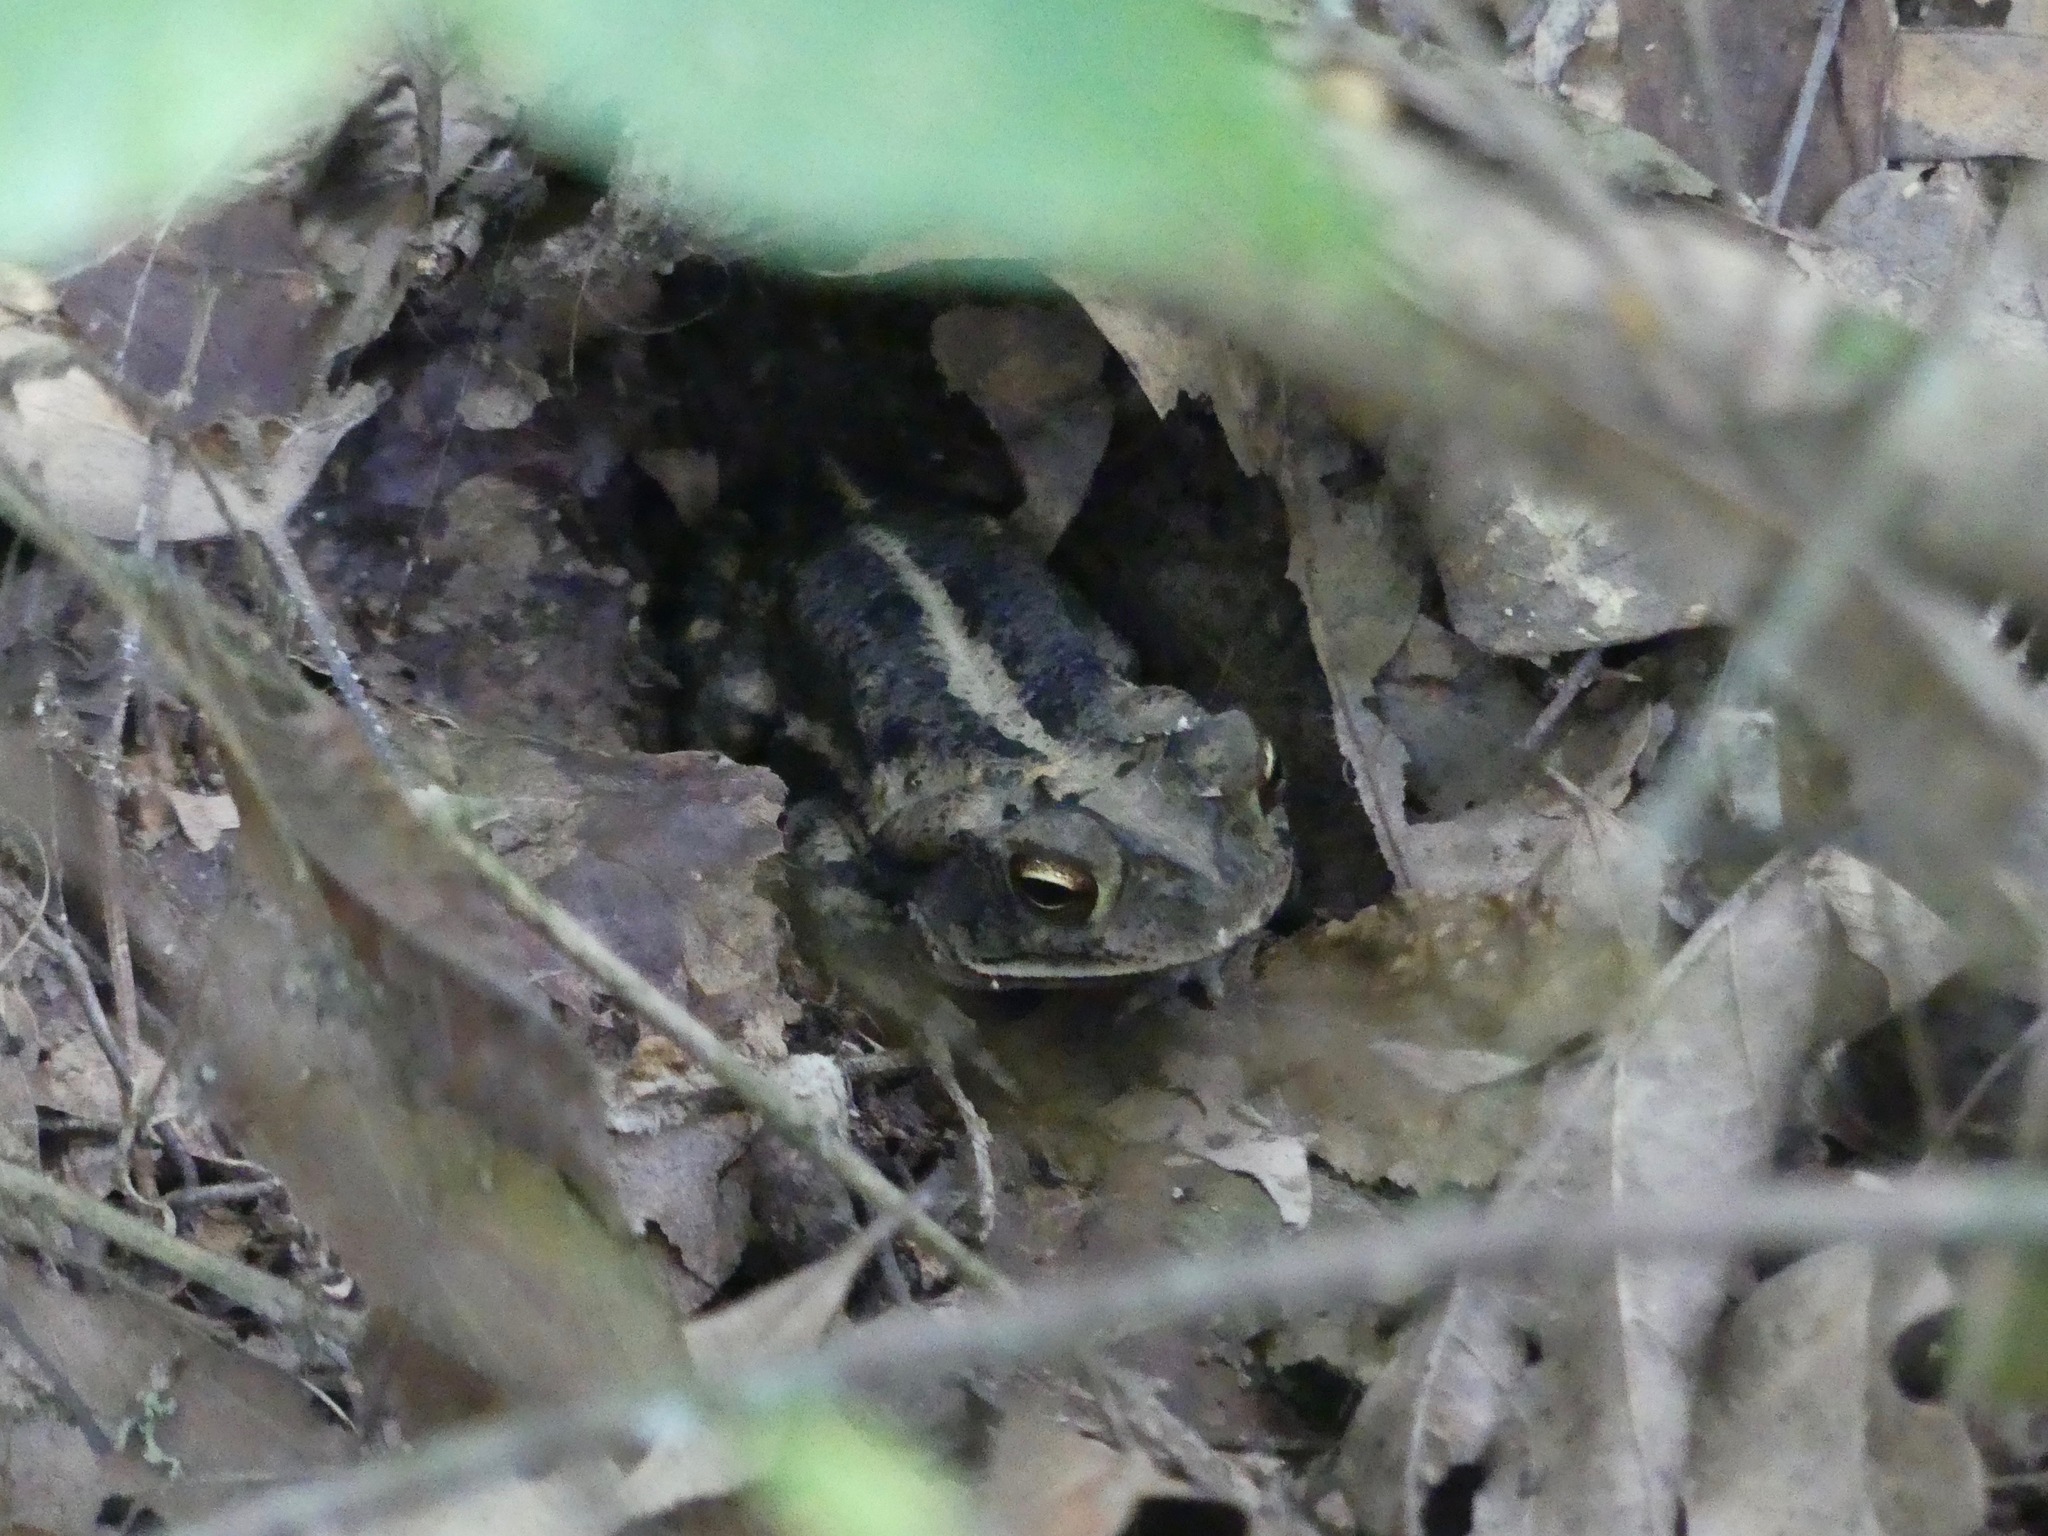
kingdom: Animalia
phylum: Chordata
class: Amphibia
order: Anura
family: Bufonidae
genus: Incilius
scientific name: Incilius nebulifer
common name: Gulf coast toad
